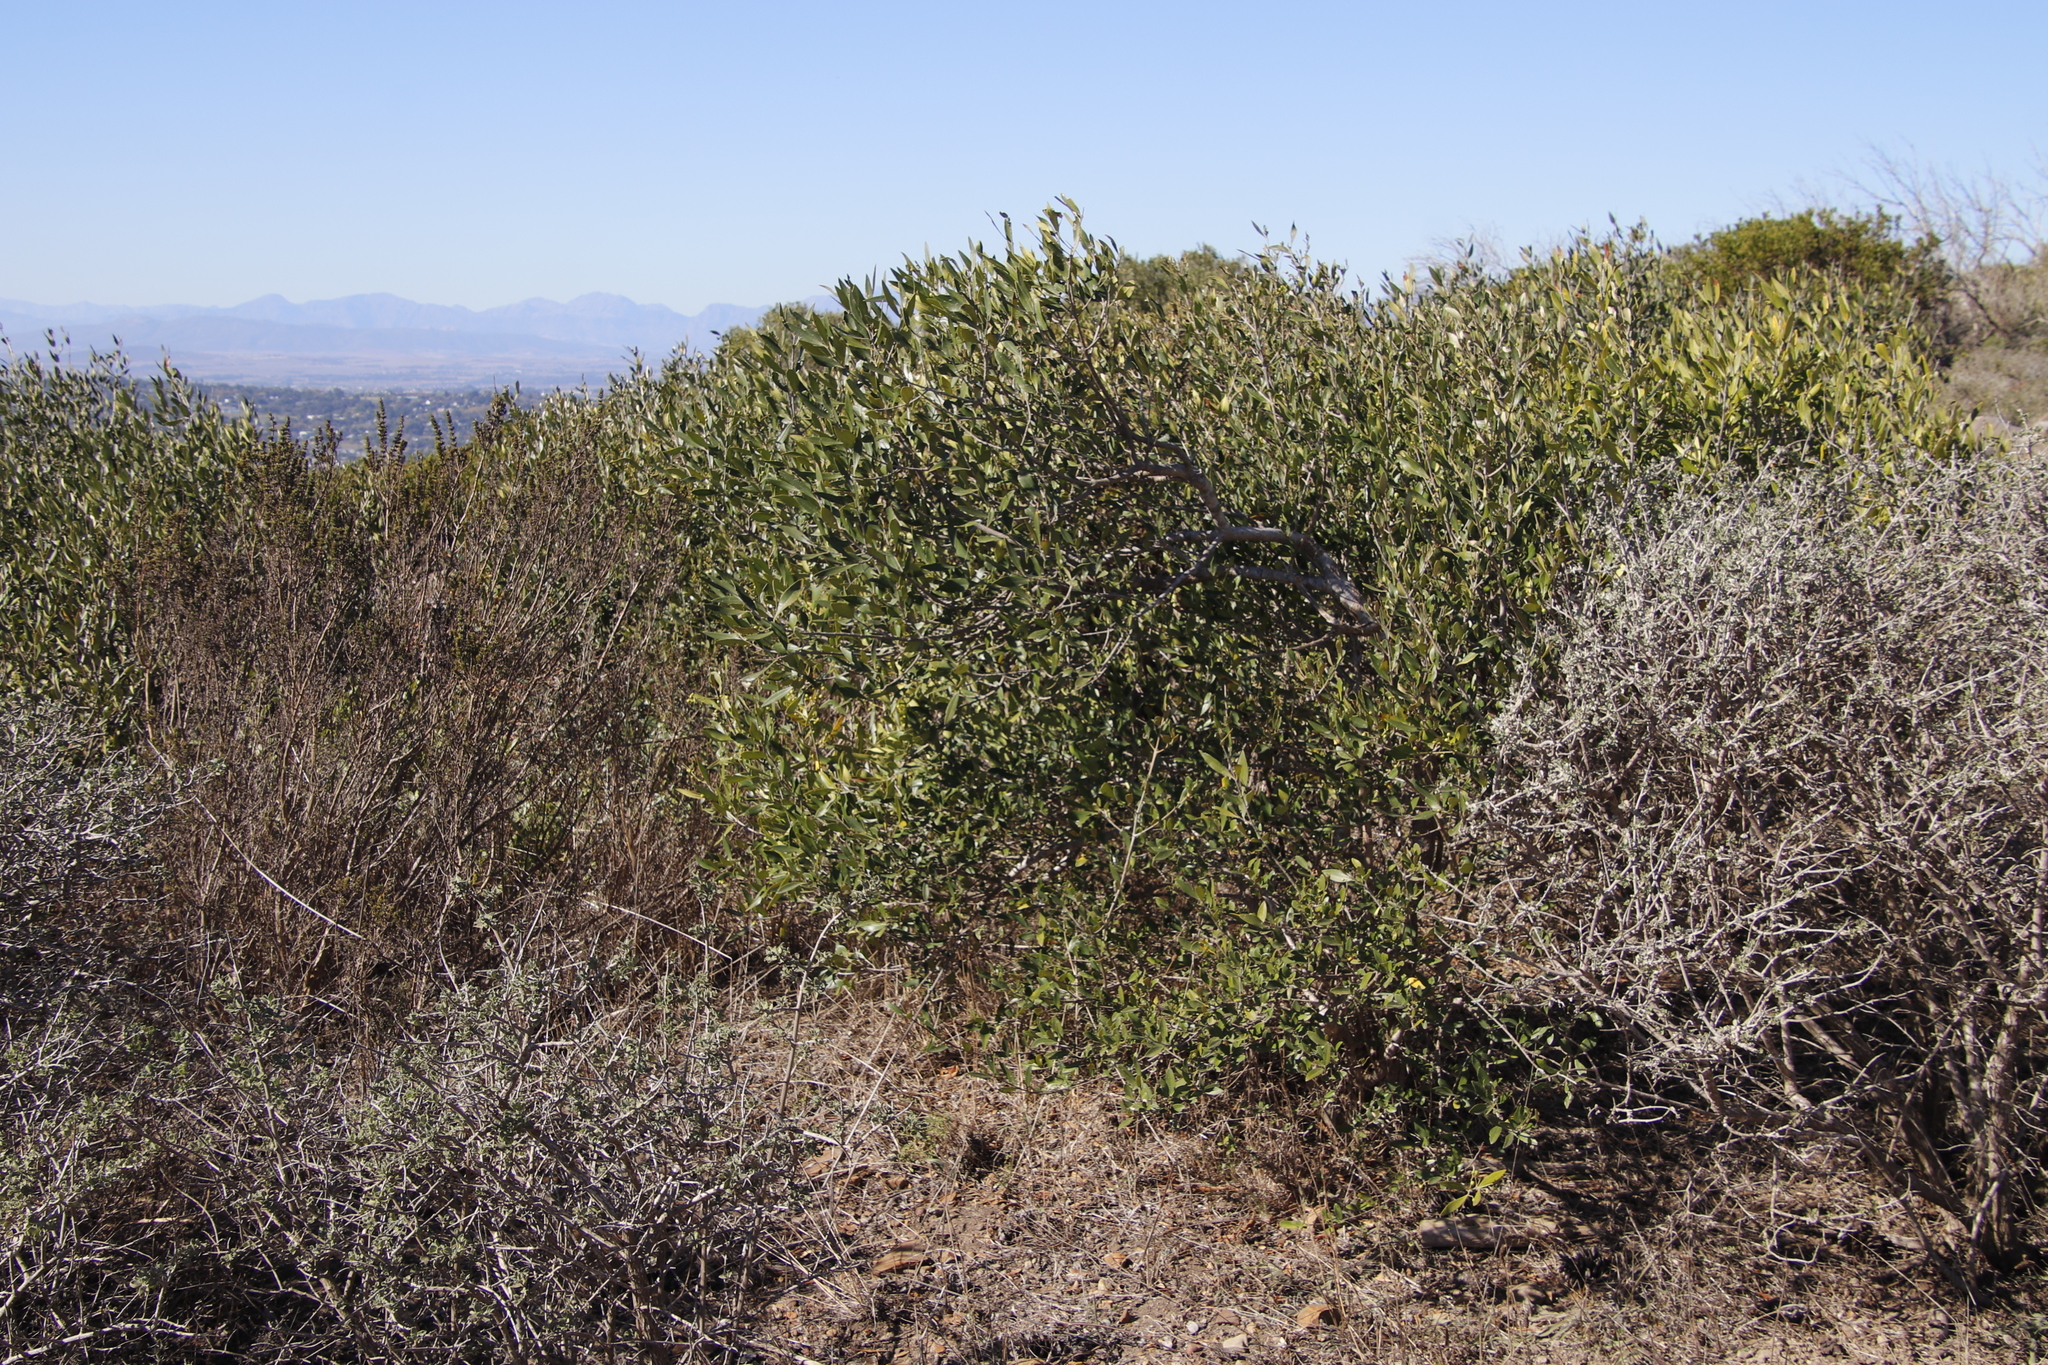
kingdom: Plantae
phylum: Tracheophyta
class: Magnoliopsida
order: Lamiales
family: Oleaceae
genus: Olea
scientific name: Olea europaea
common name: Olive
